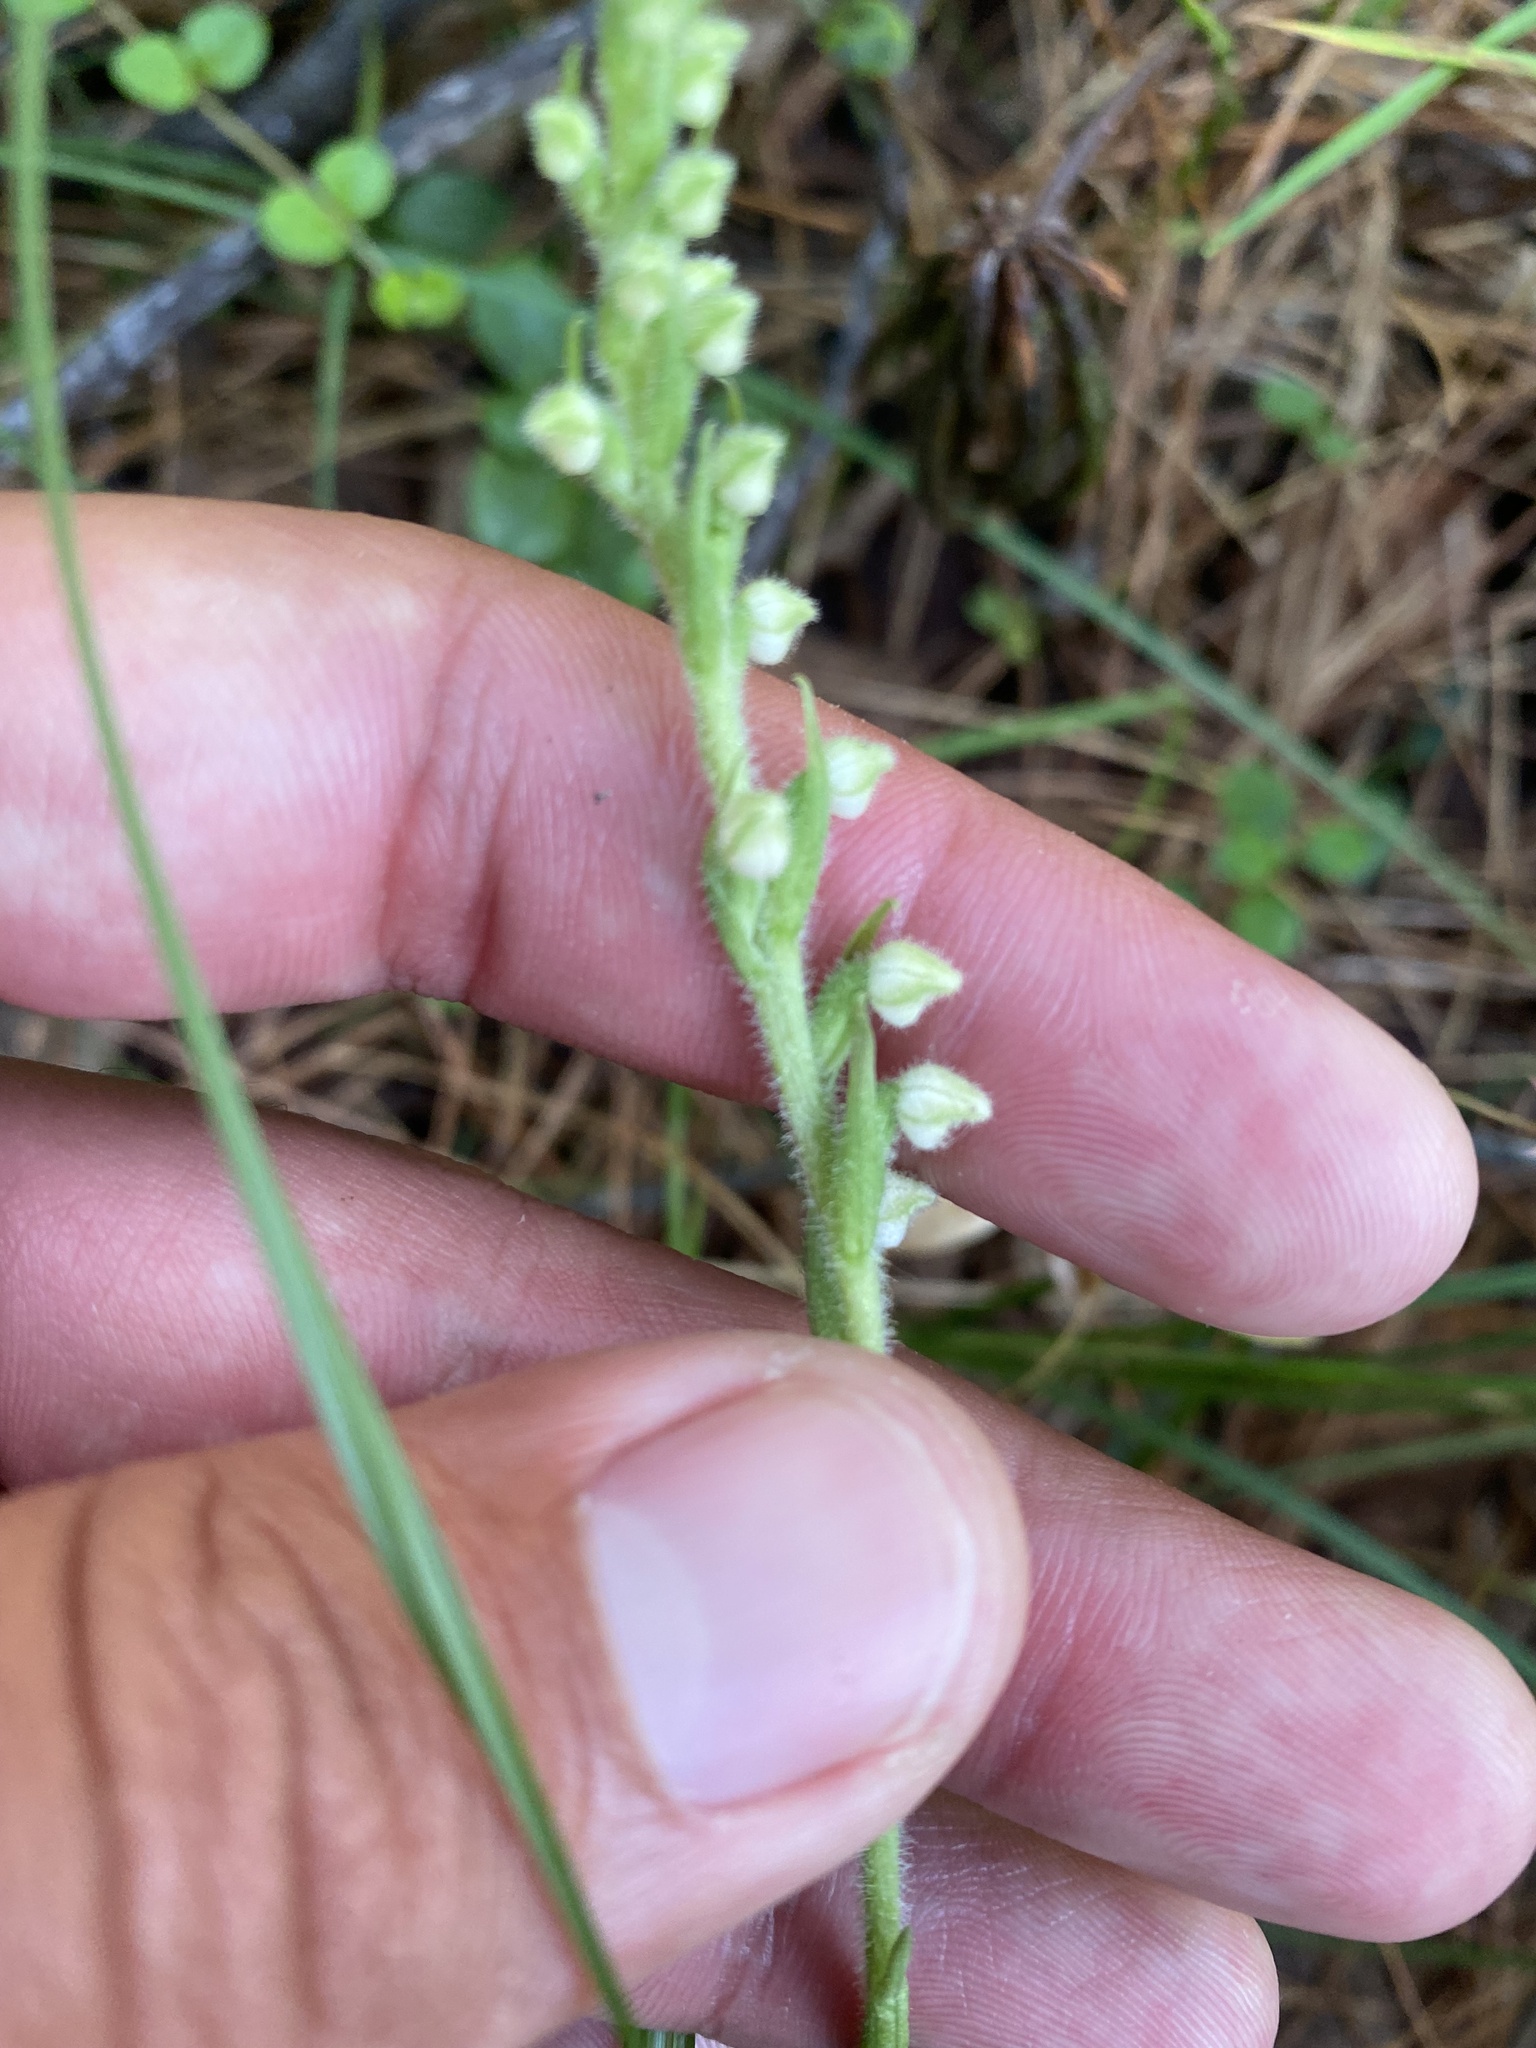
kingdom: Plantae
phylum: Tracheophyta
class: Liliopsida
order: Asparagales
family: Orchidaceae
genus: Goodyera
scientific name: Goodyera repens
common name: Creeping lady's-tresses
